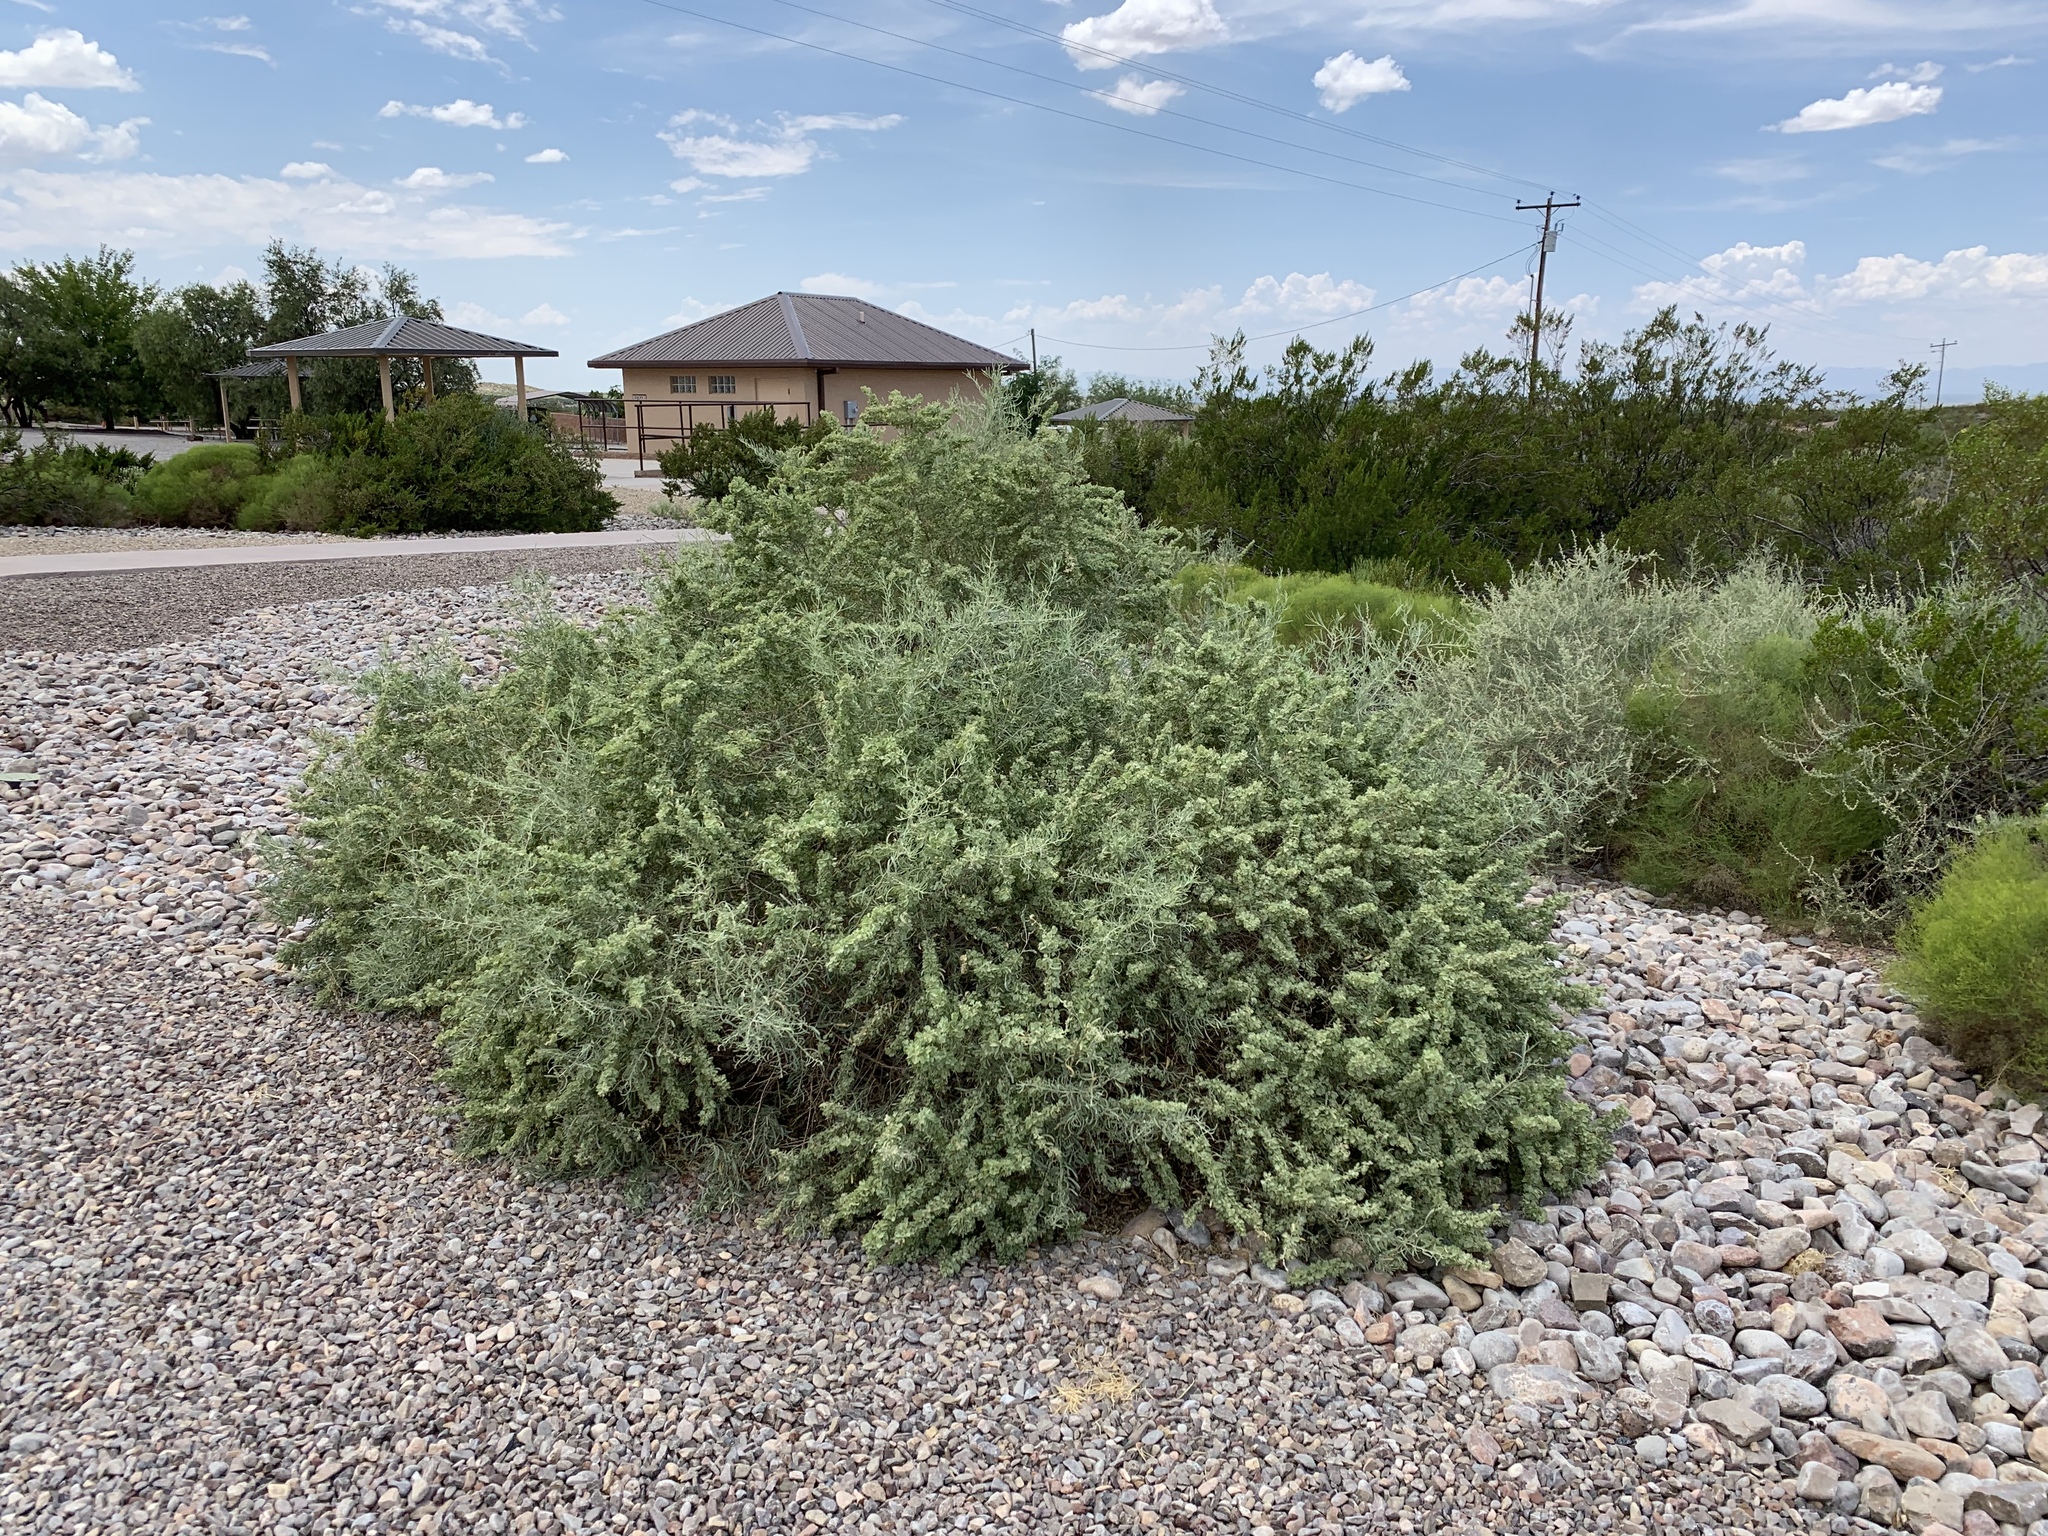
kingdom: Plantae
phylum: Tracheophyta
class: Magnoliopsida
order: Caryophyllales
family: Amaranthaceae
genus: Atriplex
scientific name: Atriplex canescens
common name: Four-wing saltbush
